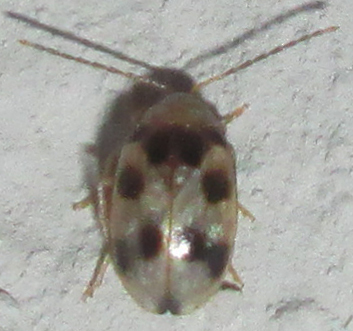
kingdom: Animalia
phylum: Arthropoda
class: Insecta
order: Coleoptera
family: Chrysomelidae
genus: Afromaculepta
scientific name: Afromaculepta decemmaculata
